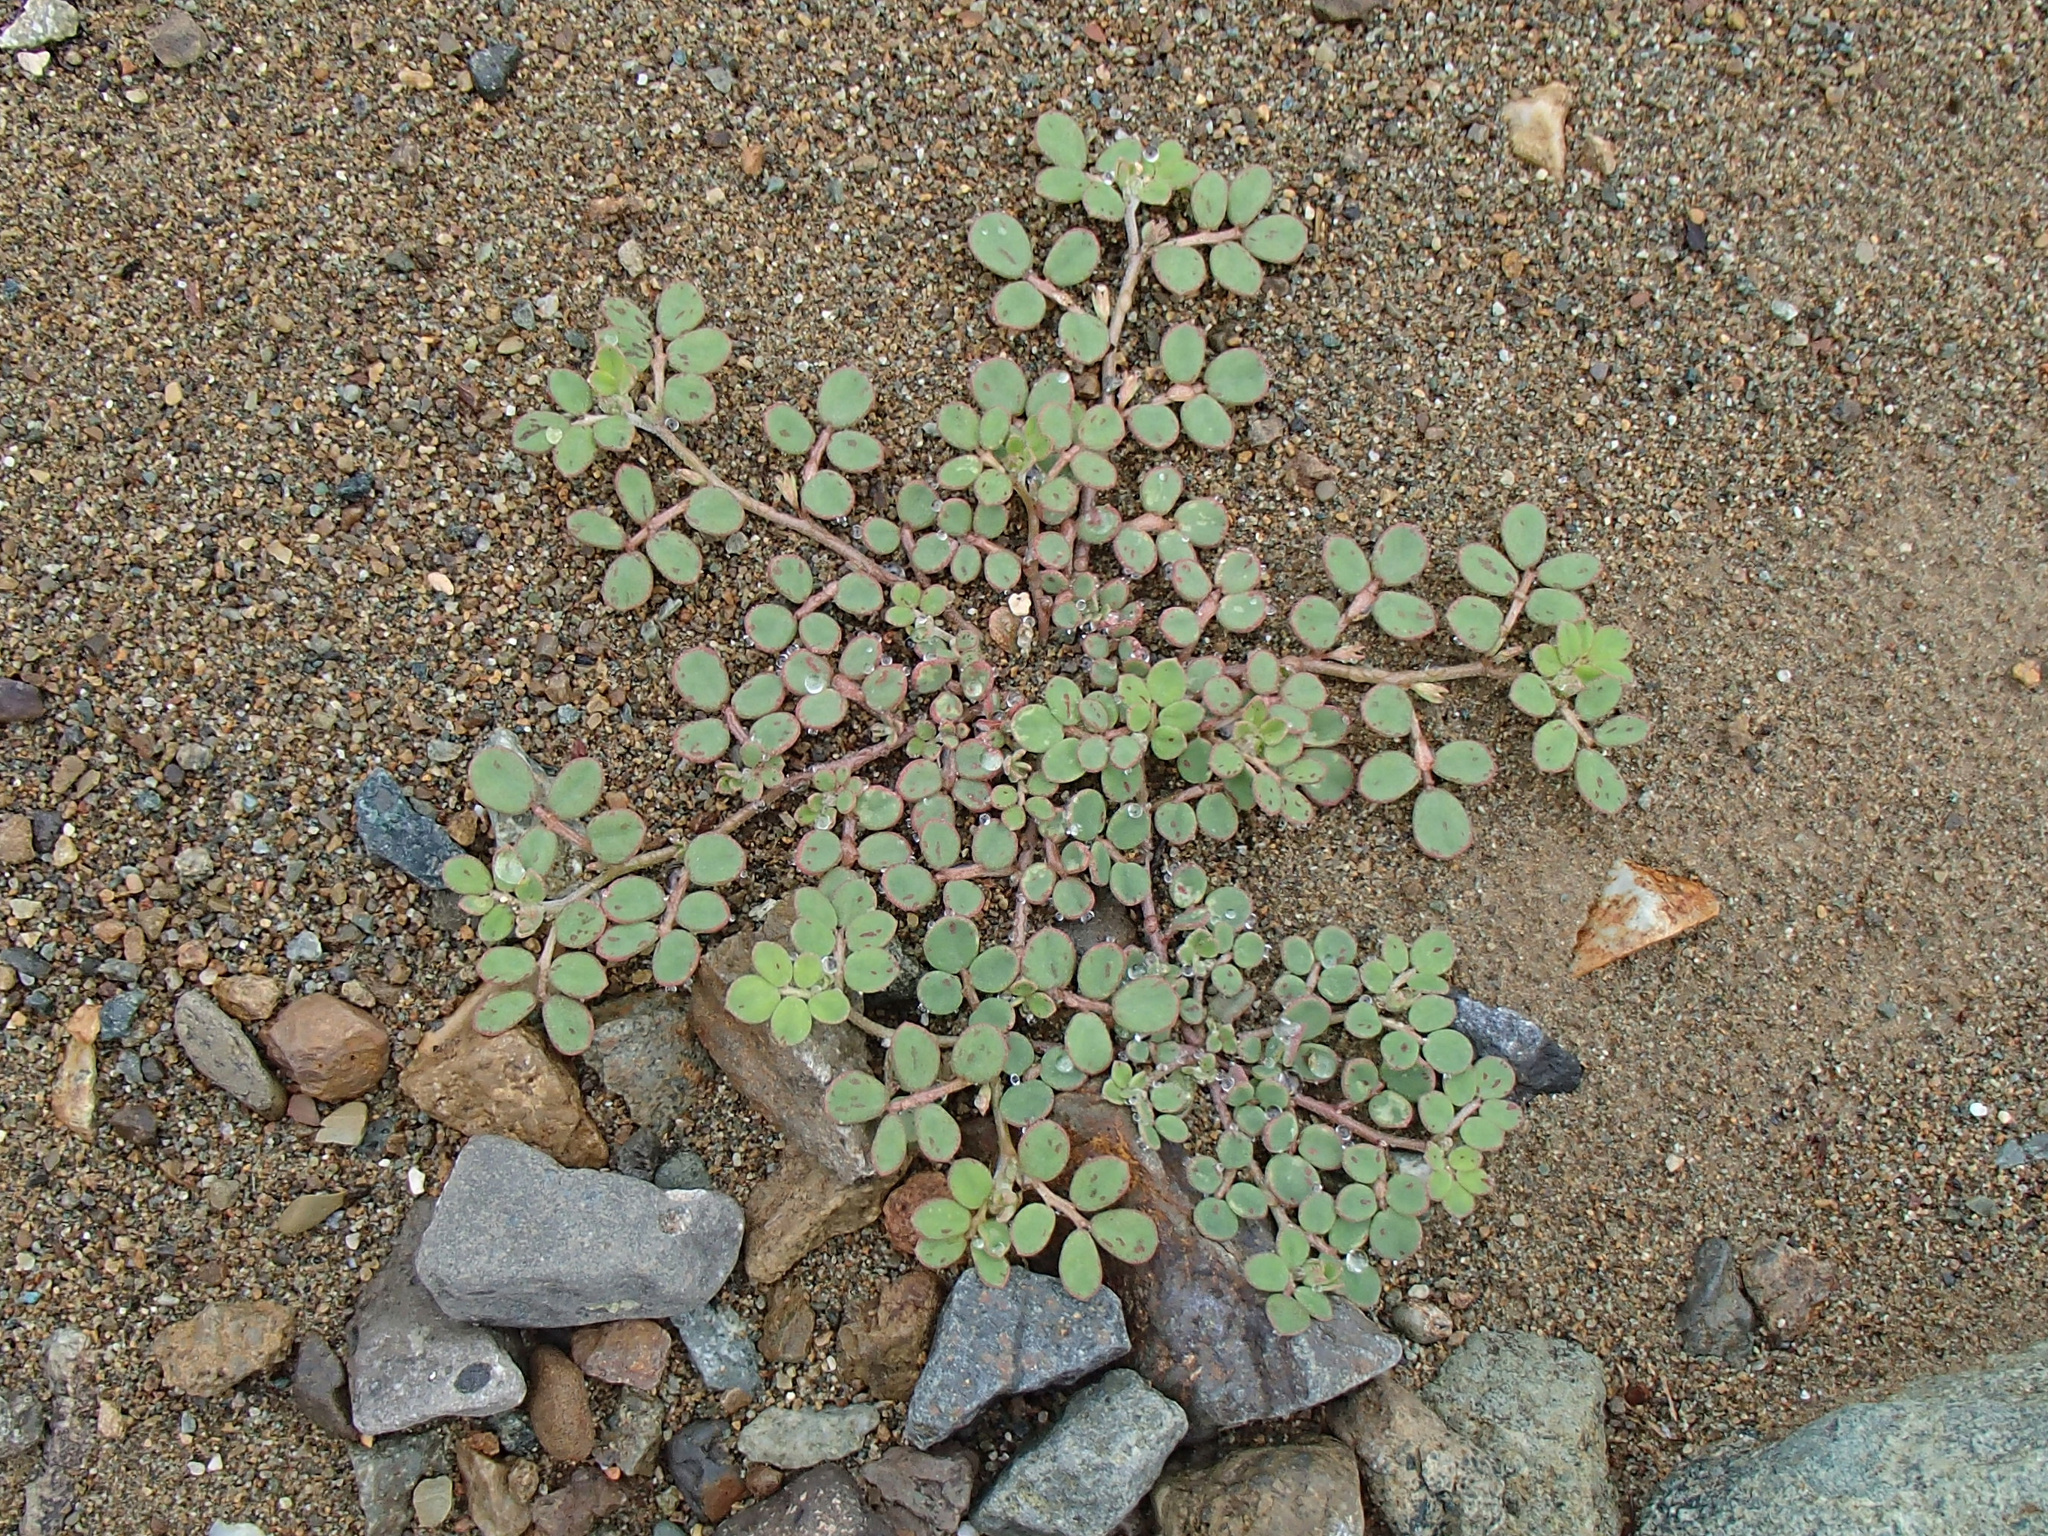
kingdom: Plantae
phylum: Tracheophyta
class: Magnoliopsida
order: Fabales
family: Fabaceae
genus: Acmispon
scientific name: Acmispon maritimus
